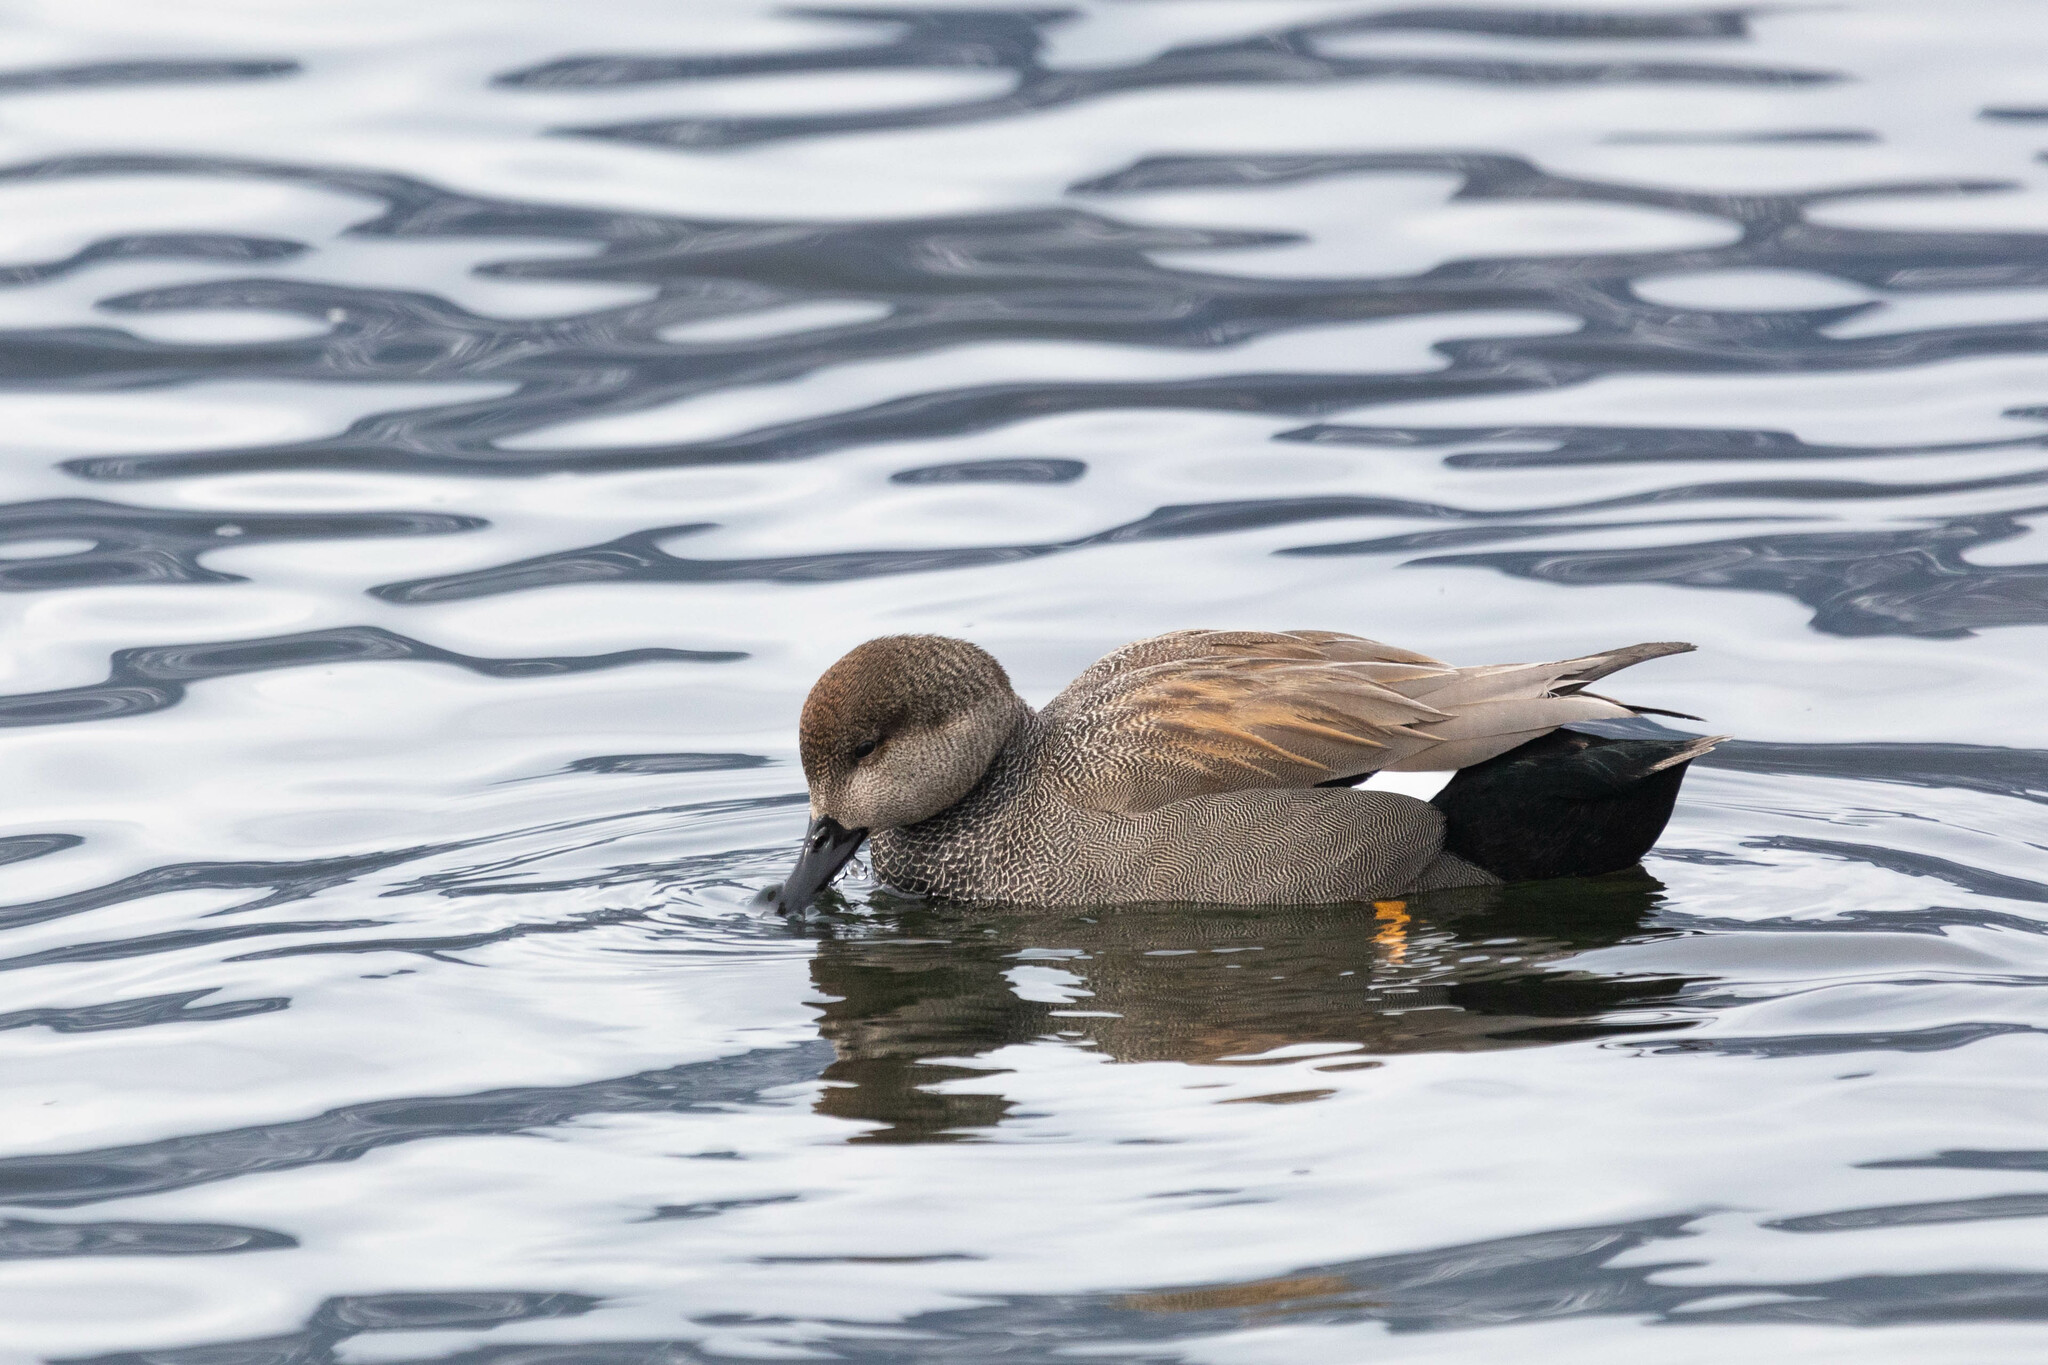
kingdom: Animalia
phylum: Chordata
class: Aves
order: Anseriformes
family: Anatidae
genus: Mareca
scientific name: Mareca strepera
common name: Gadwall
